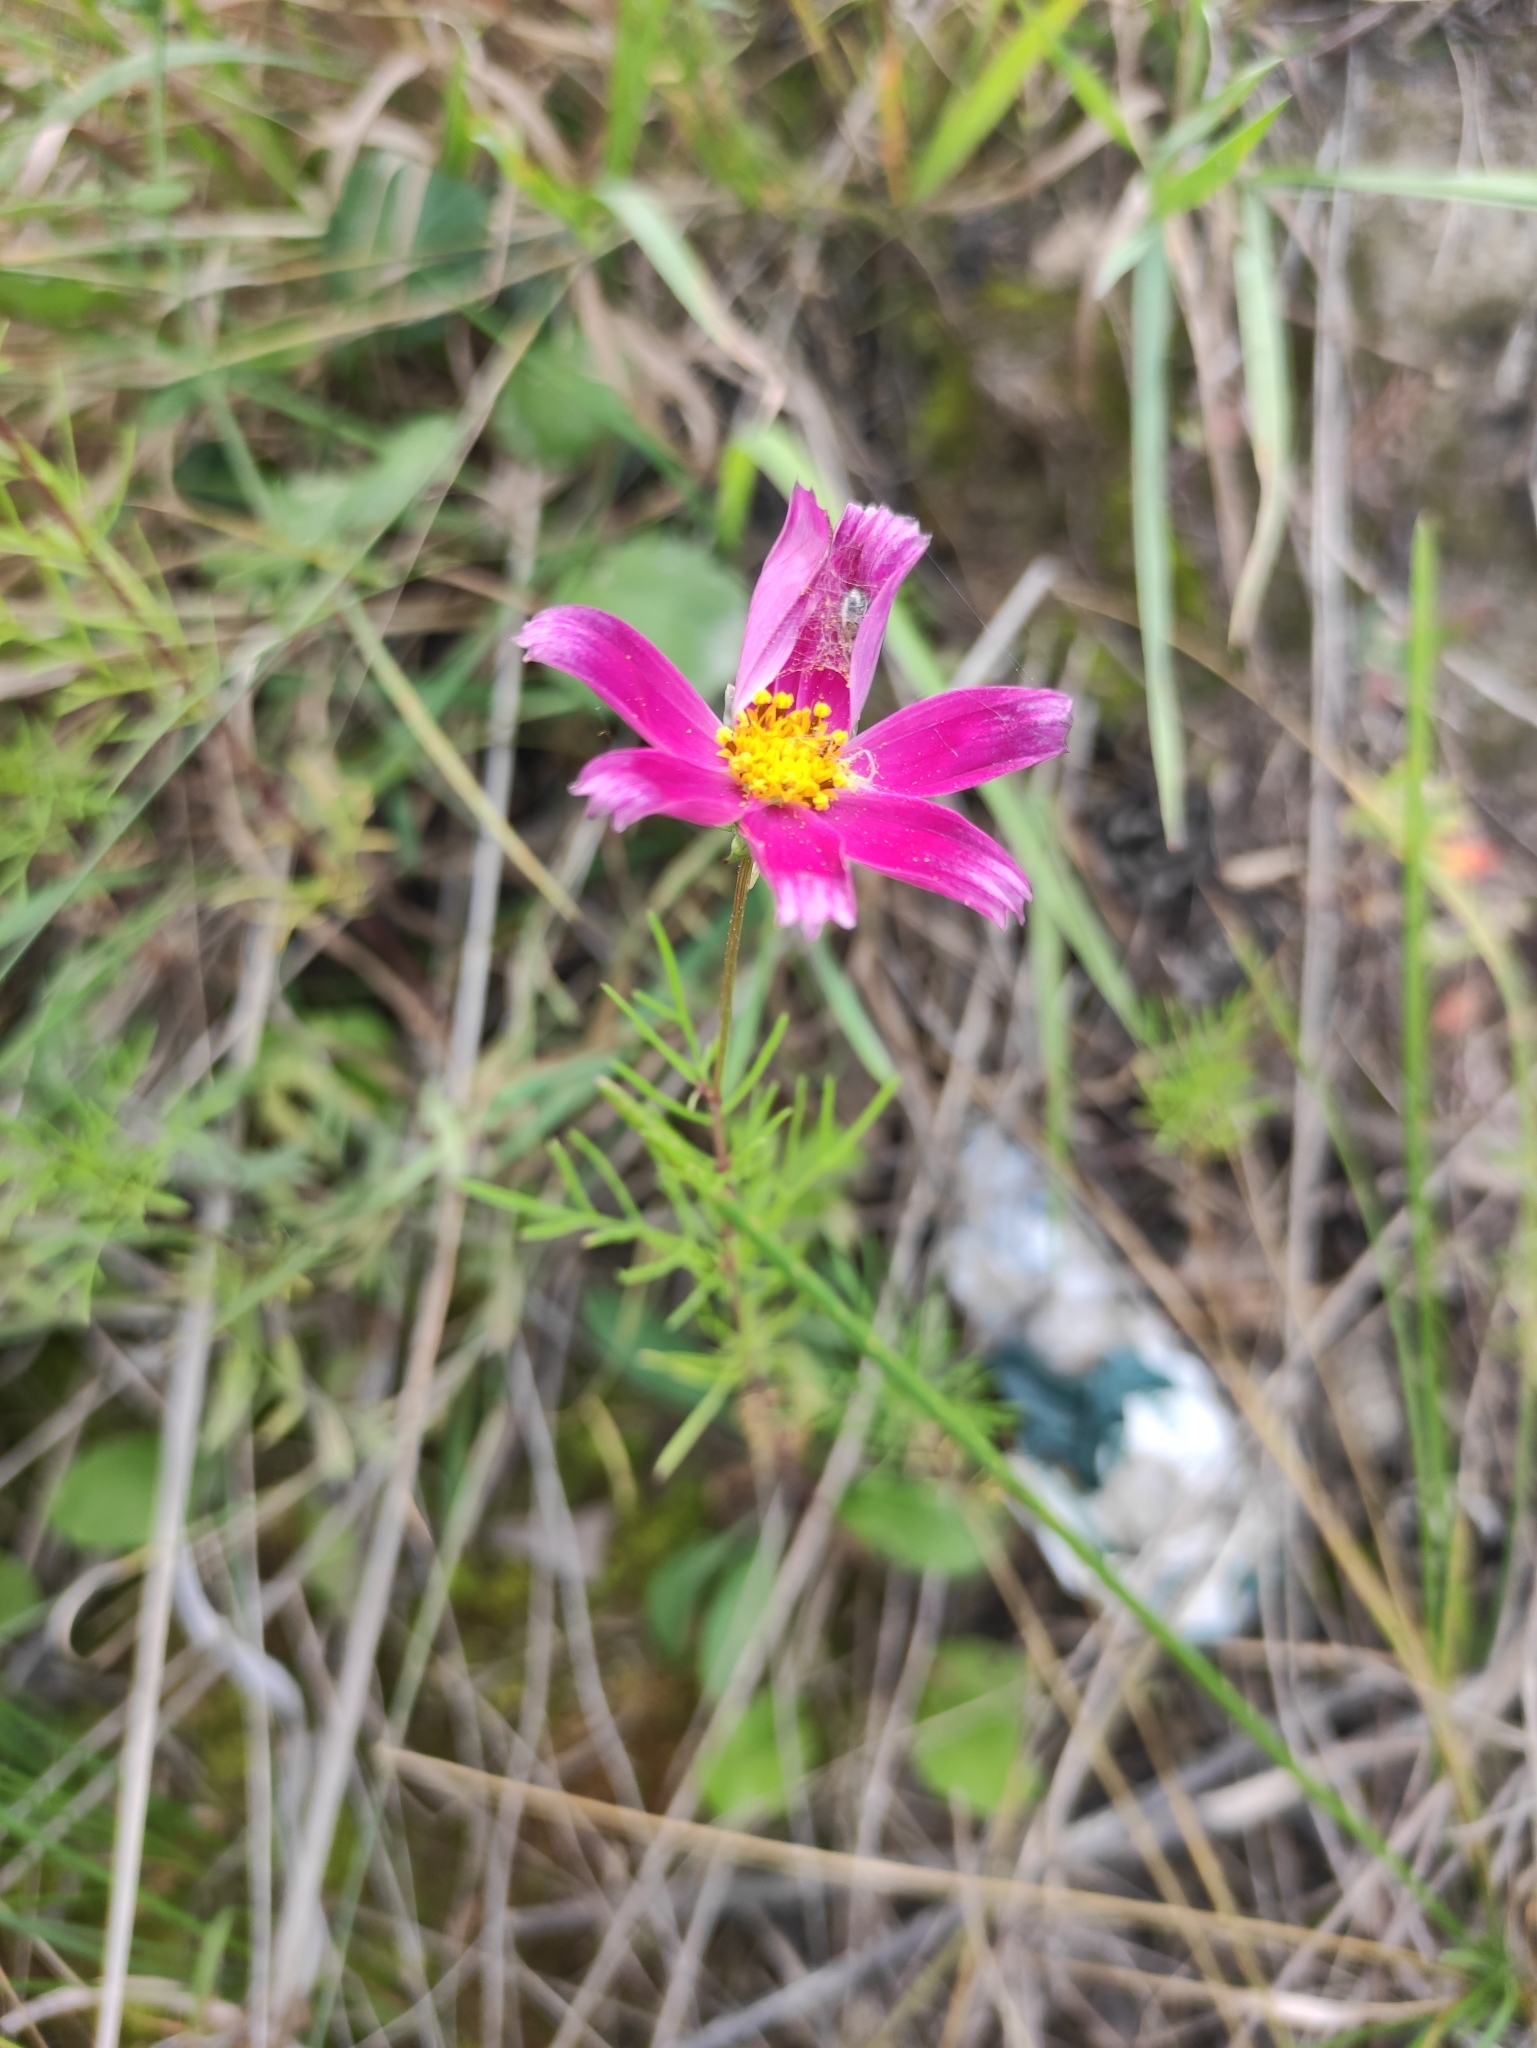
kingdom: Plantae
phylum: Tracheophyta
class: Magnoliopsida
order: Asterales
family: Asteraceae
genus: Cosmos
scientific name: Cosmos bipinnatus
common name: Garden cosmos
